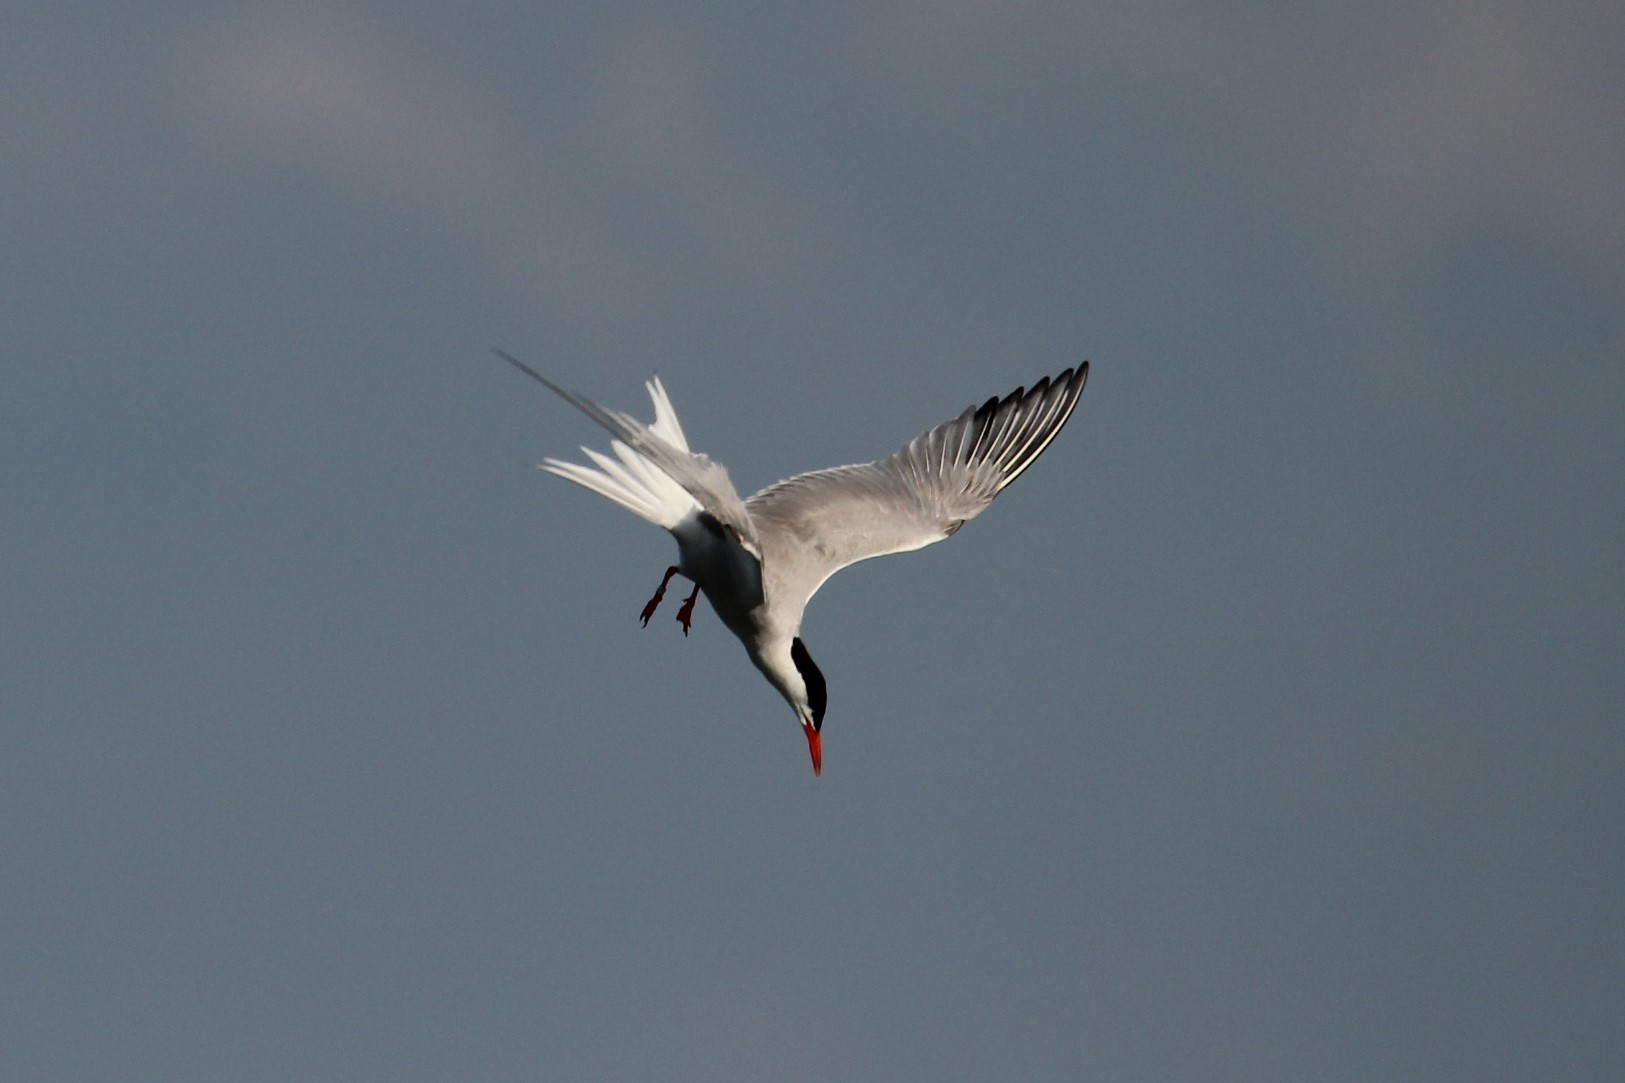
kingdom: Animalia
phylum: Chordata
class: Aves
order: Charadriiformes
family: Laridae
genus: Sterna
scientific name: Sterna hirundo
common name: Common tern
